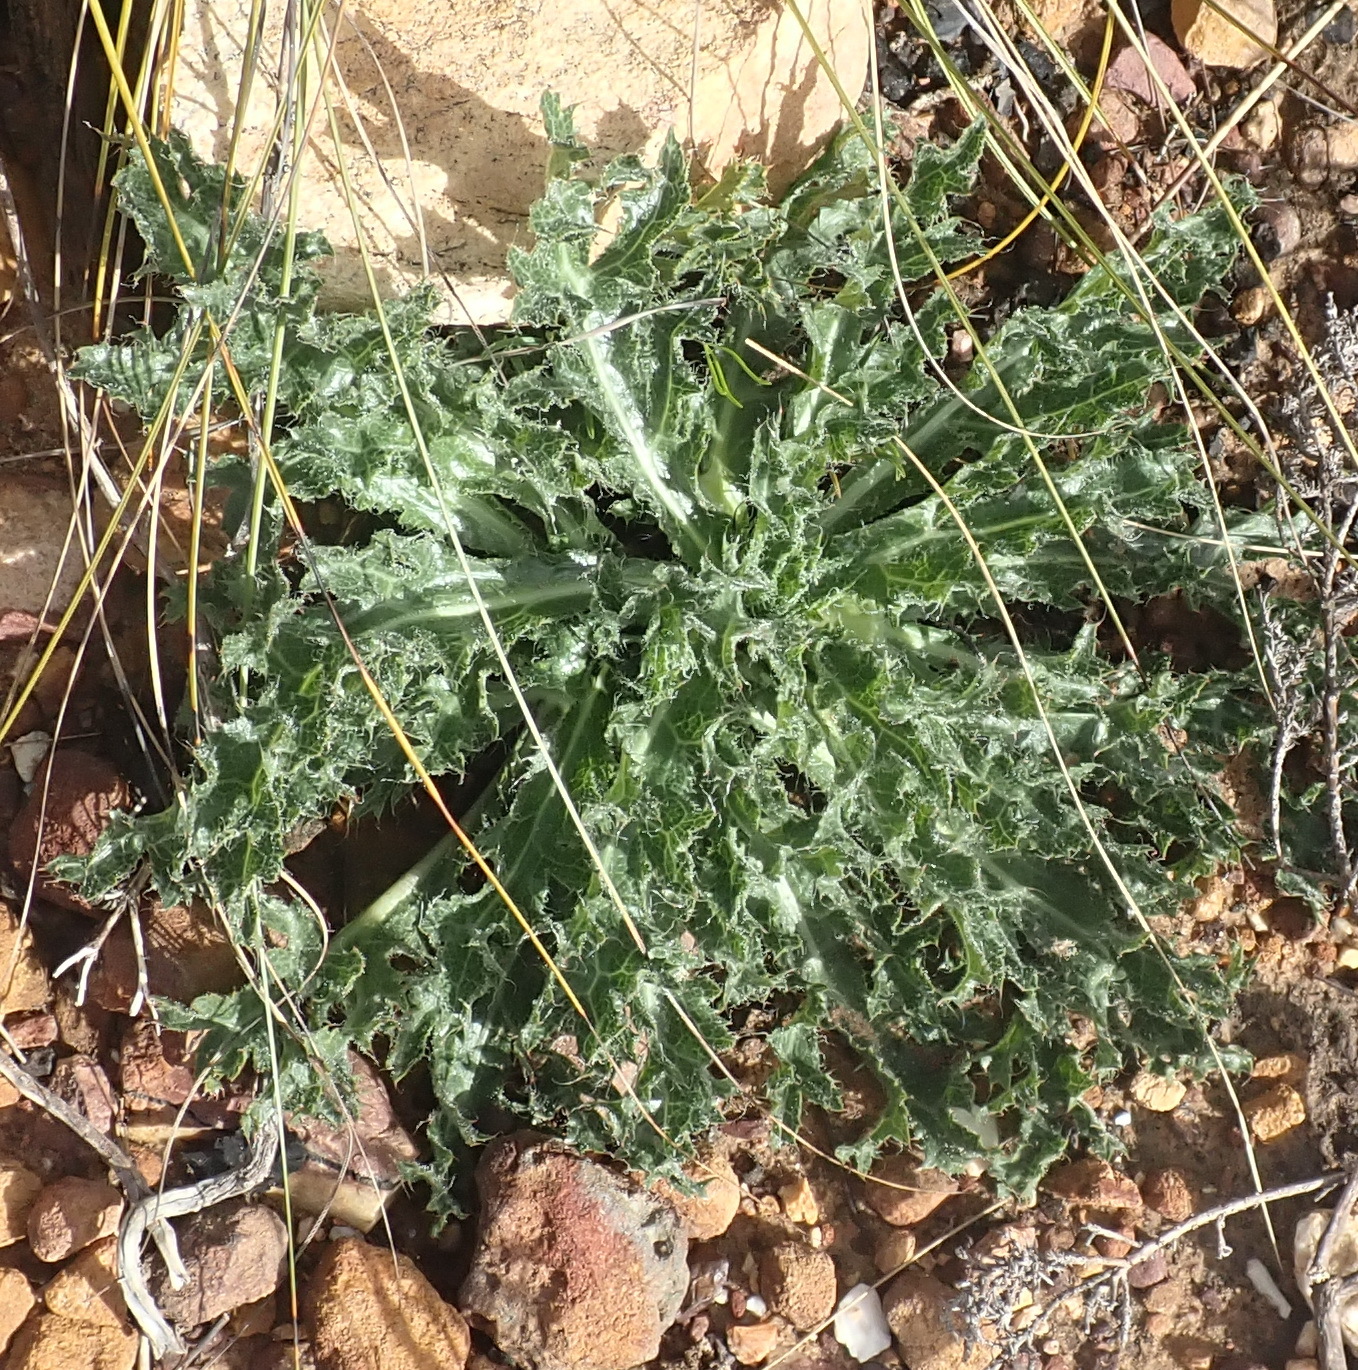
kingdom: Plantae
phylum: Tracheophyta
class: Magnoliopsida
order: Apiales
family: Apiaceae
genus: Lichtensteinia
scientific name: Lichtensteinia lacera
